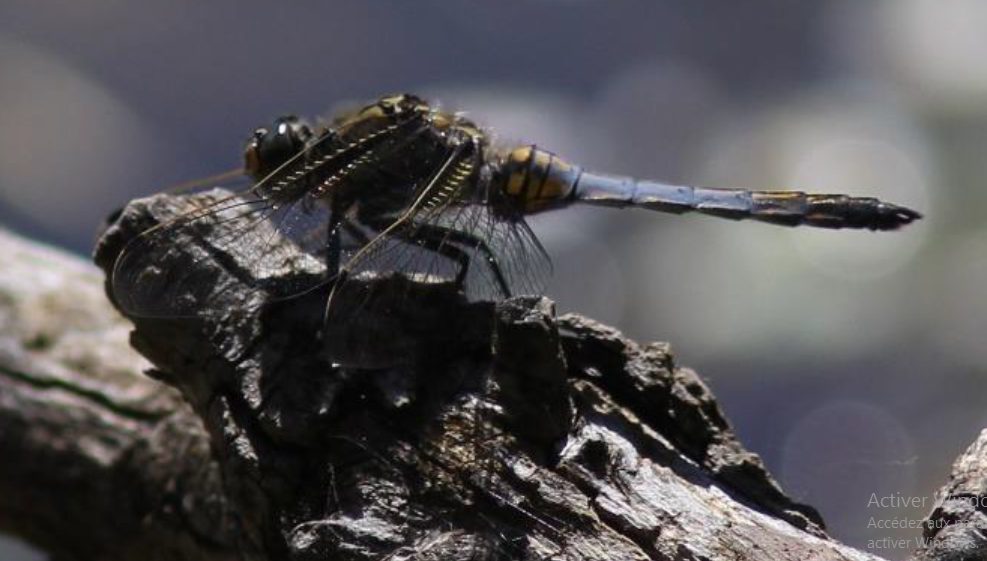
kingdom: Animalia
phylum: Arthropoda
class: Insecta
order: Odonata
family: Libellulidae
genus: Orthetrum
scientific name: Orthetrum cancellatum
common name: Black-tailed skimmer
